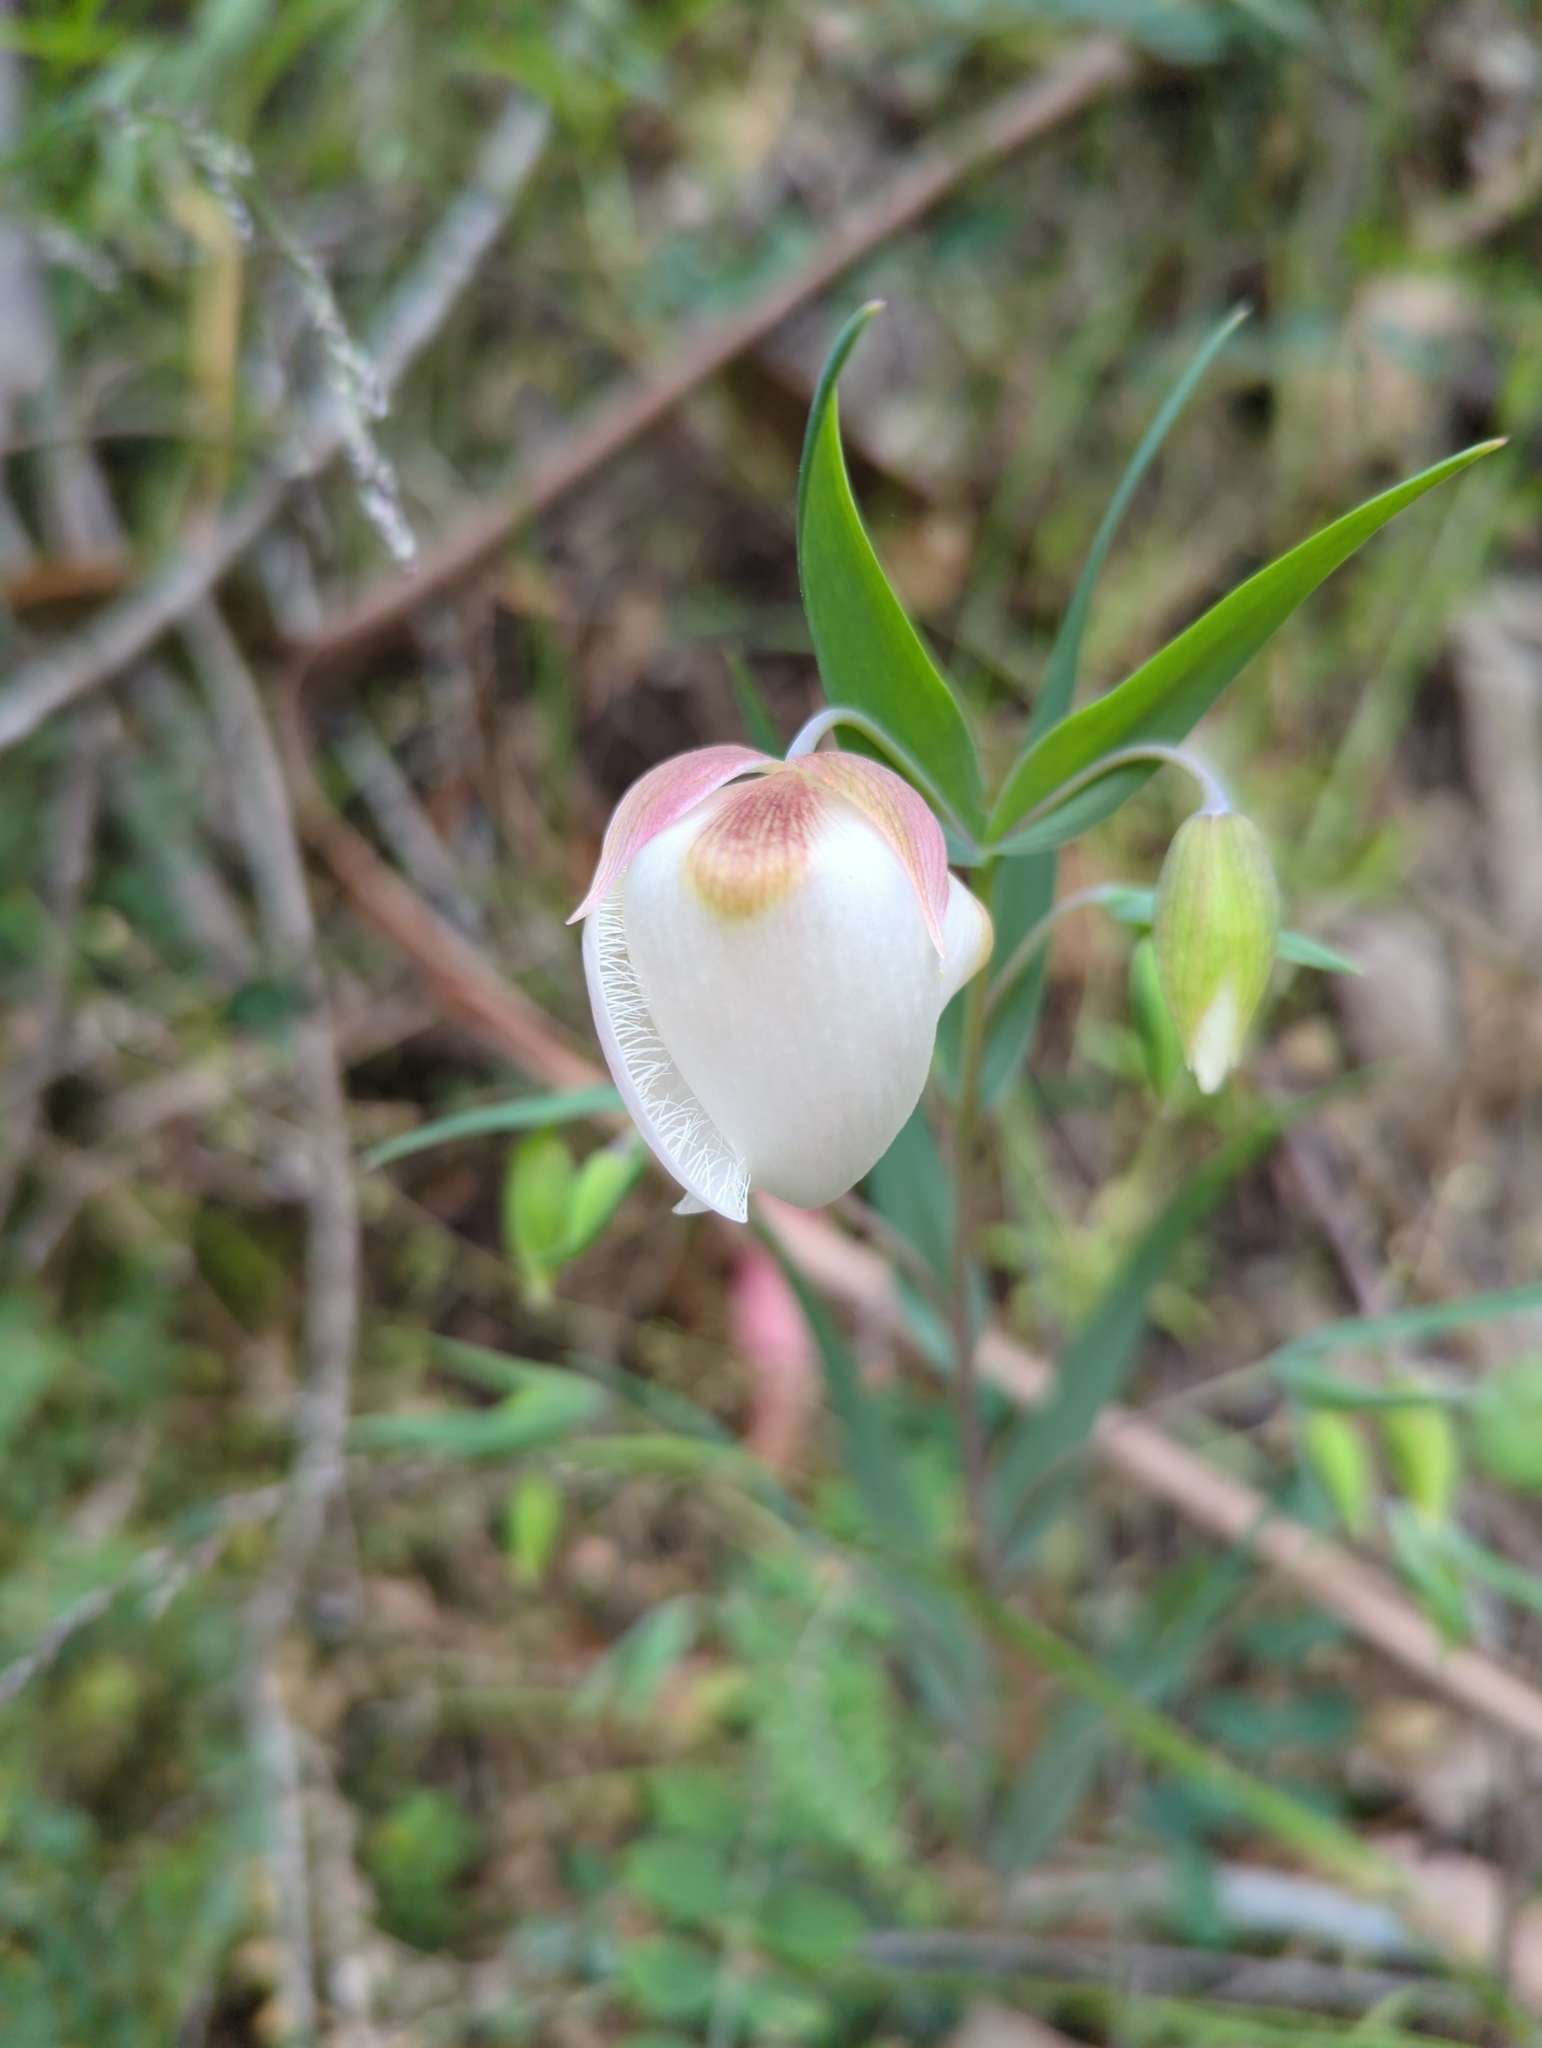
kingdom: Plantae
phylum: Tracheophyta
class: Liliopsida
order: Liliales
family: Liliaceae
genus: Calochortus
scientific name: Calochortus albus
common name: Fairy-lantern
